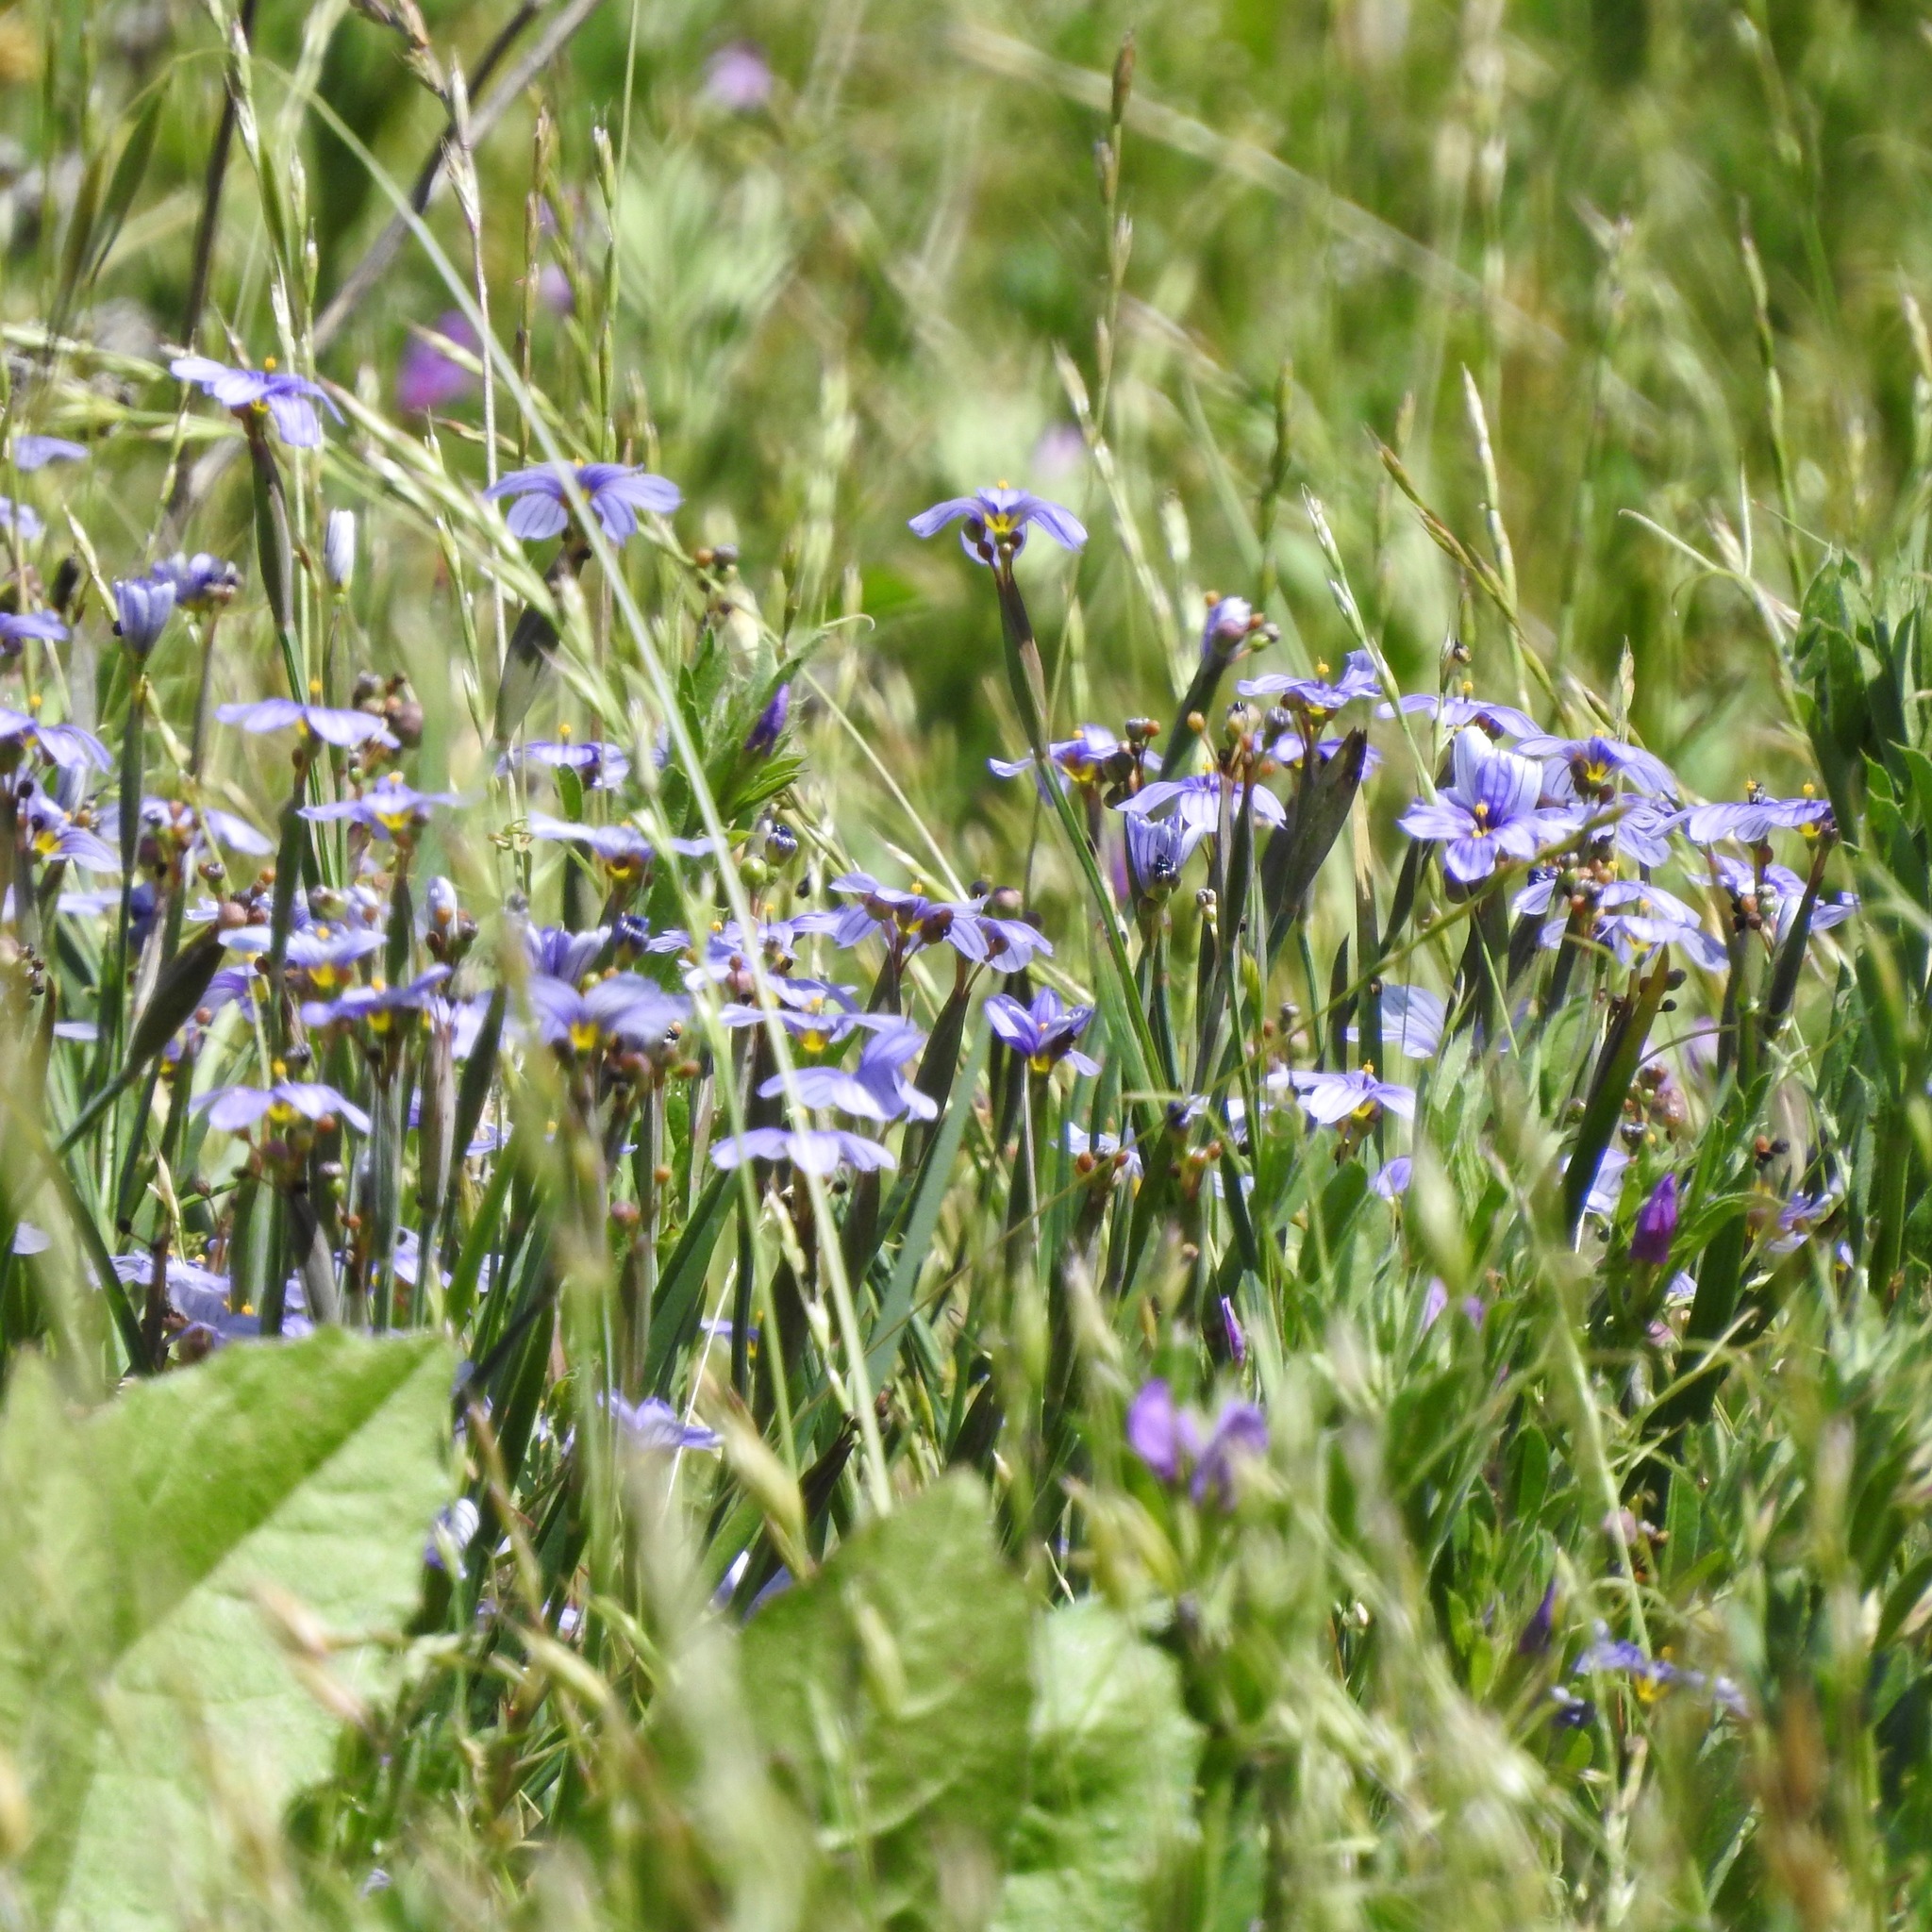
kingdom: Plantae
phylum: Tracheophyta
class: Liliopsida
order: Asparagales
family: Iridaceae
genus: Sisyrinchium
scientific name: Sisyrinchium bellum
